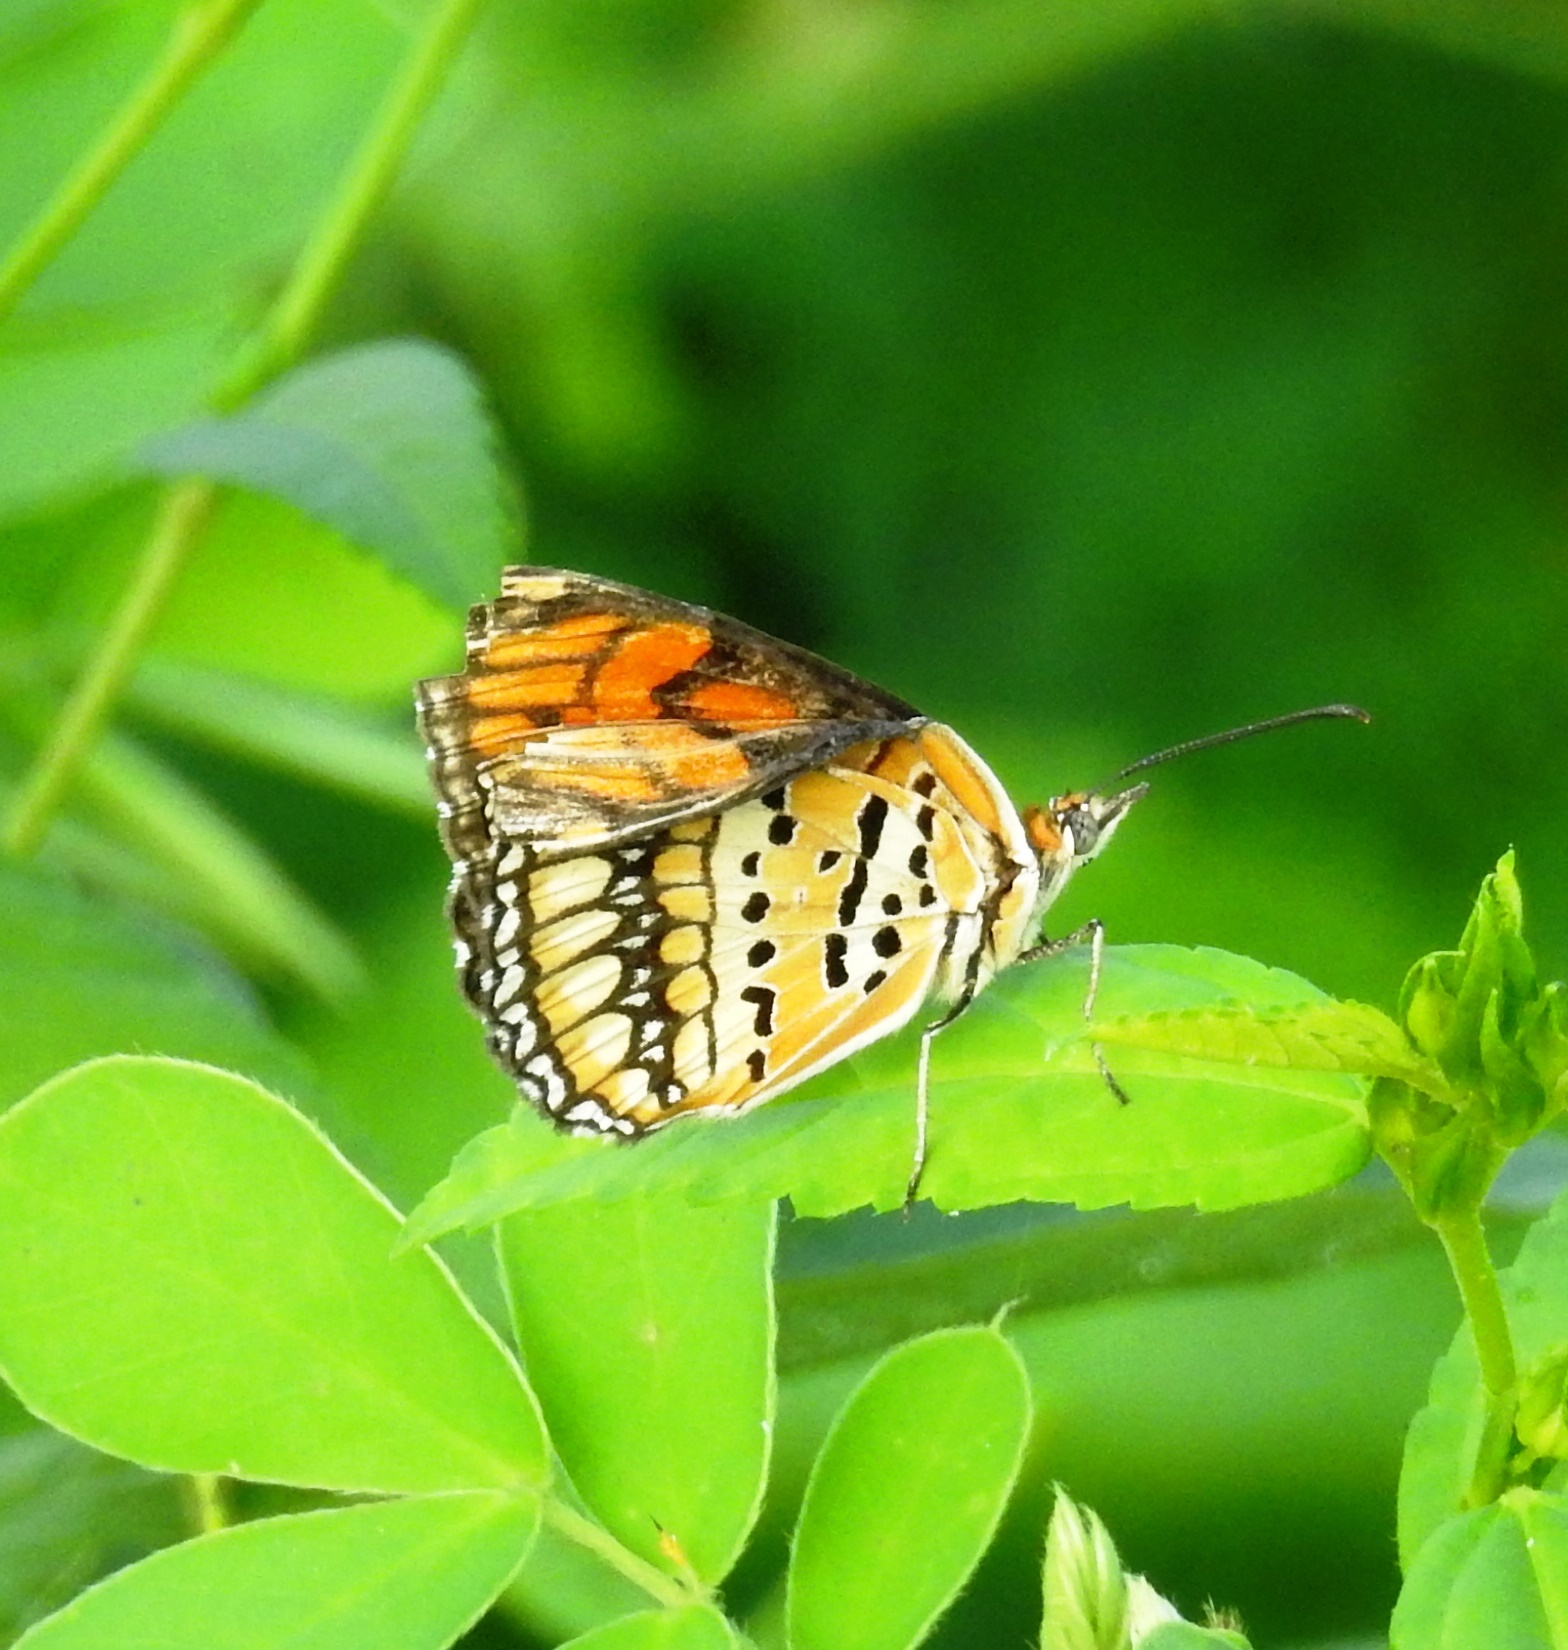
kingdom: Animalia
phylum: Arthropoda
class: Insecta
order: Lepidoptera
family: Nymphalidae
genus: Byblia
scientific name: Byblia ilithyia
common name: Spotted joker
